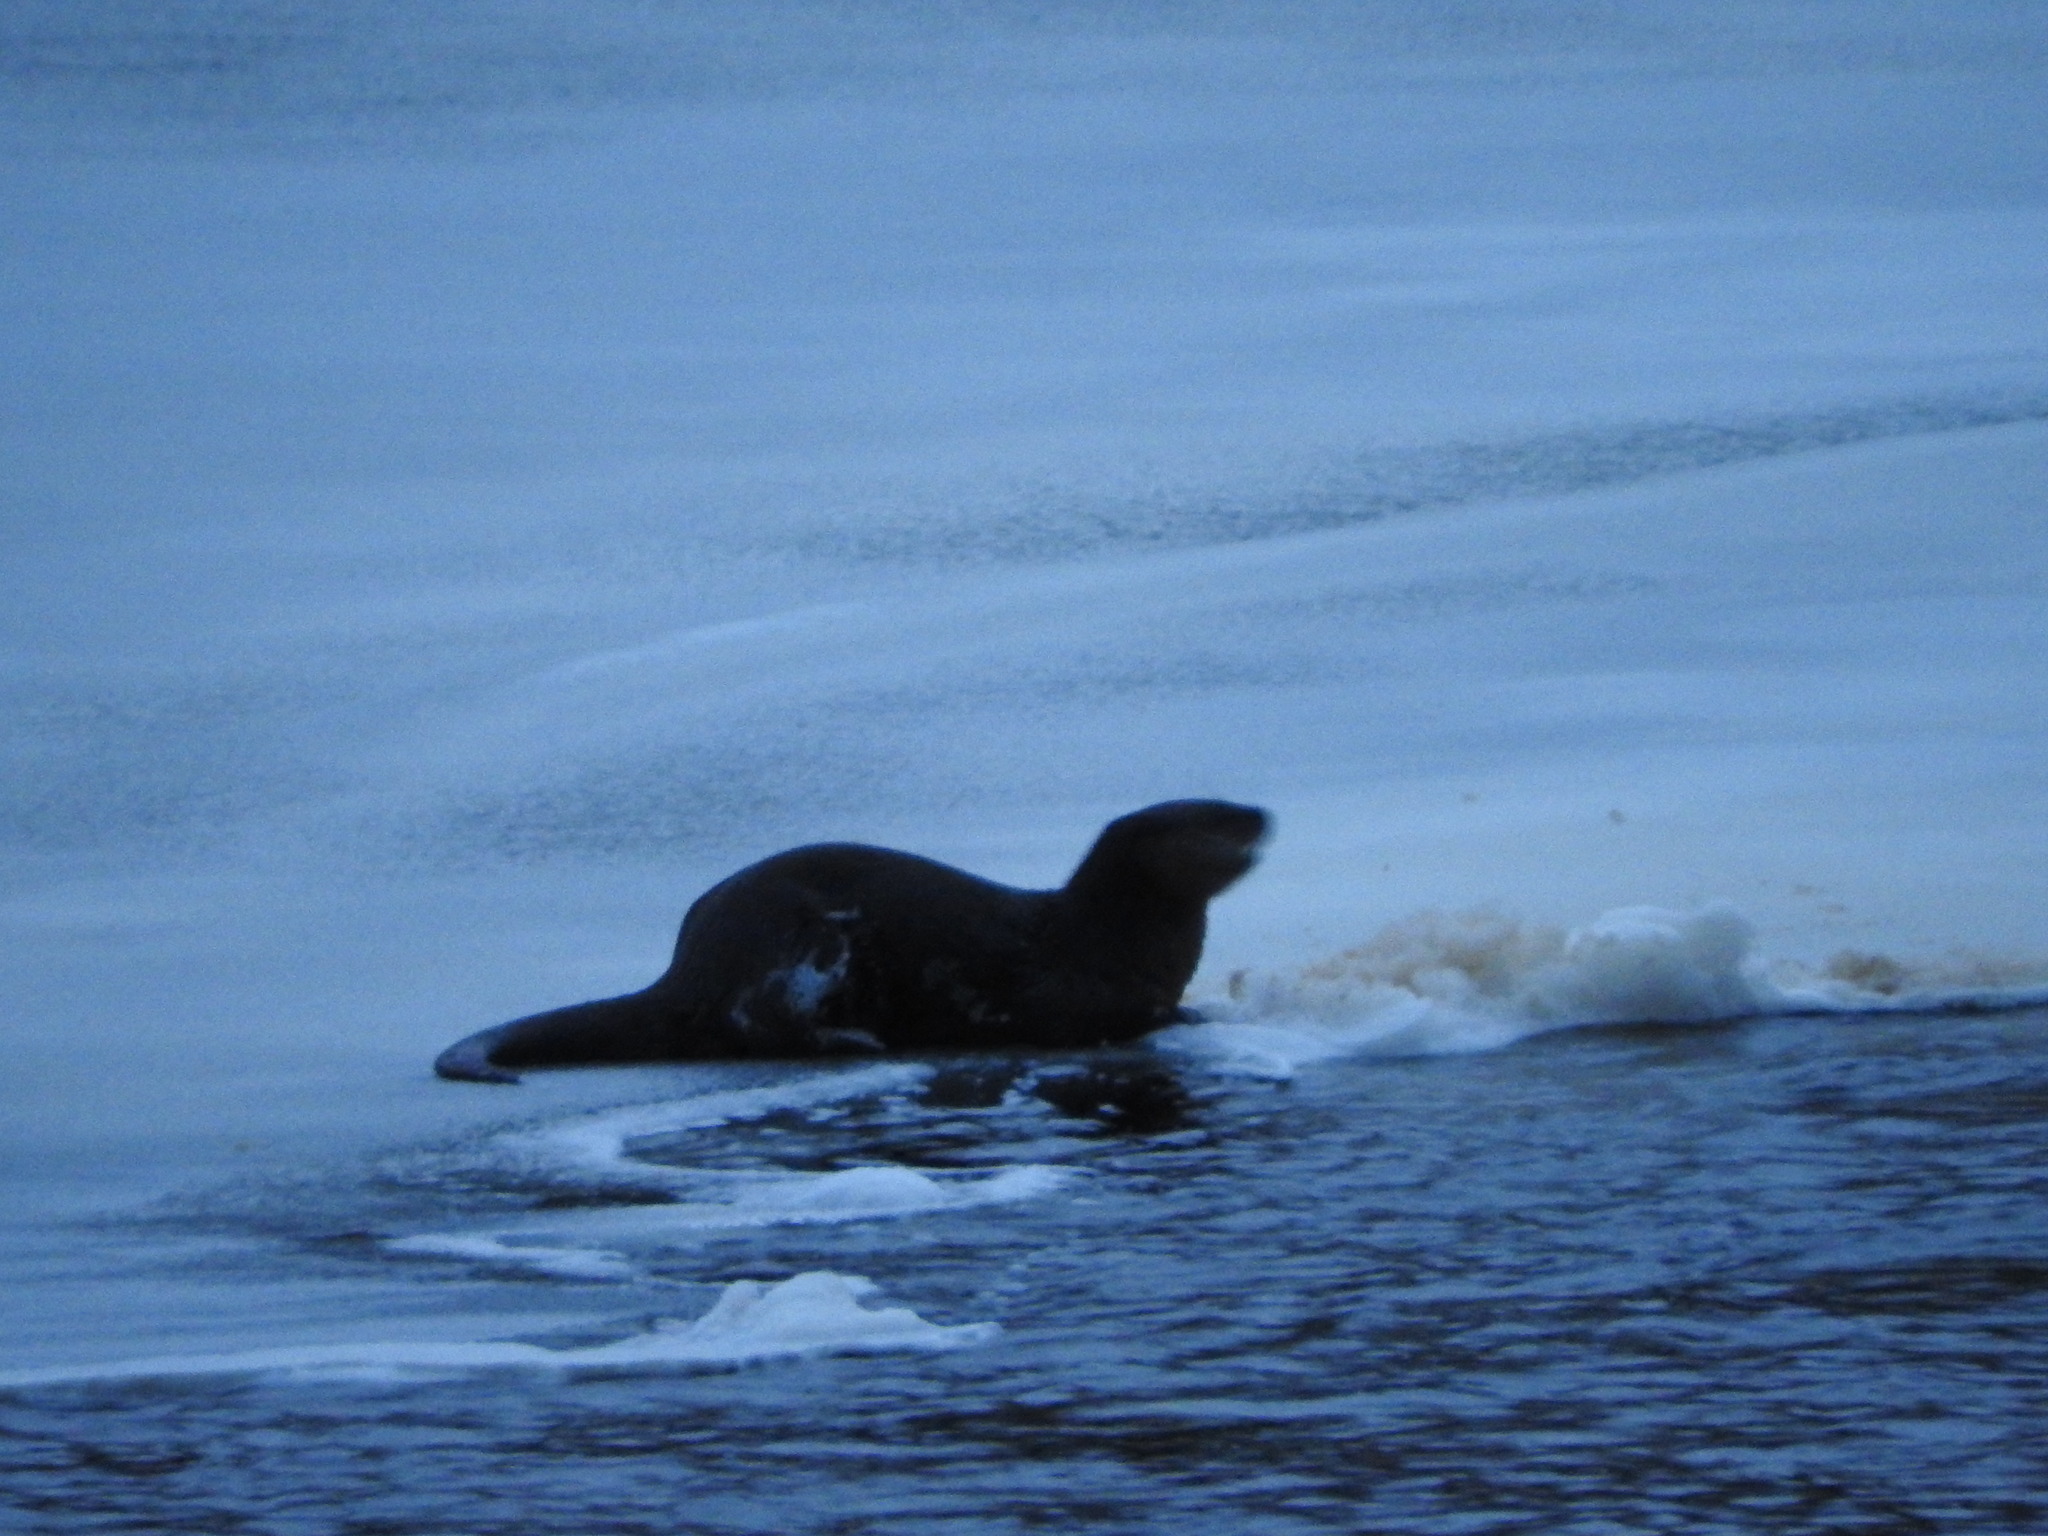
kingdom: Animalia
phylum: Chordata
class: Mammalia
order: Carnivora
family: Mustelidae
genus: Lontra
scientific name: Lontra canadensis
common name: North american river otter
